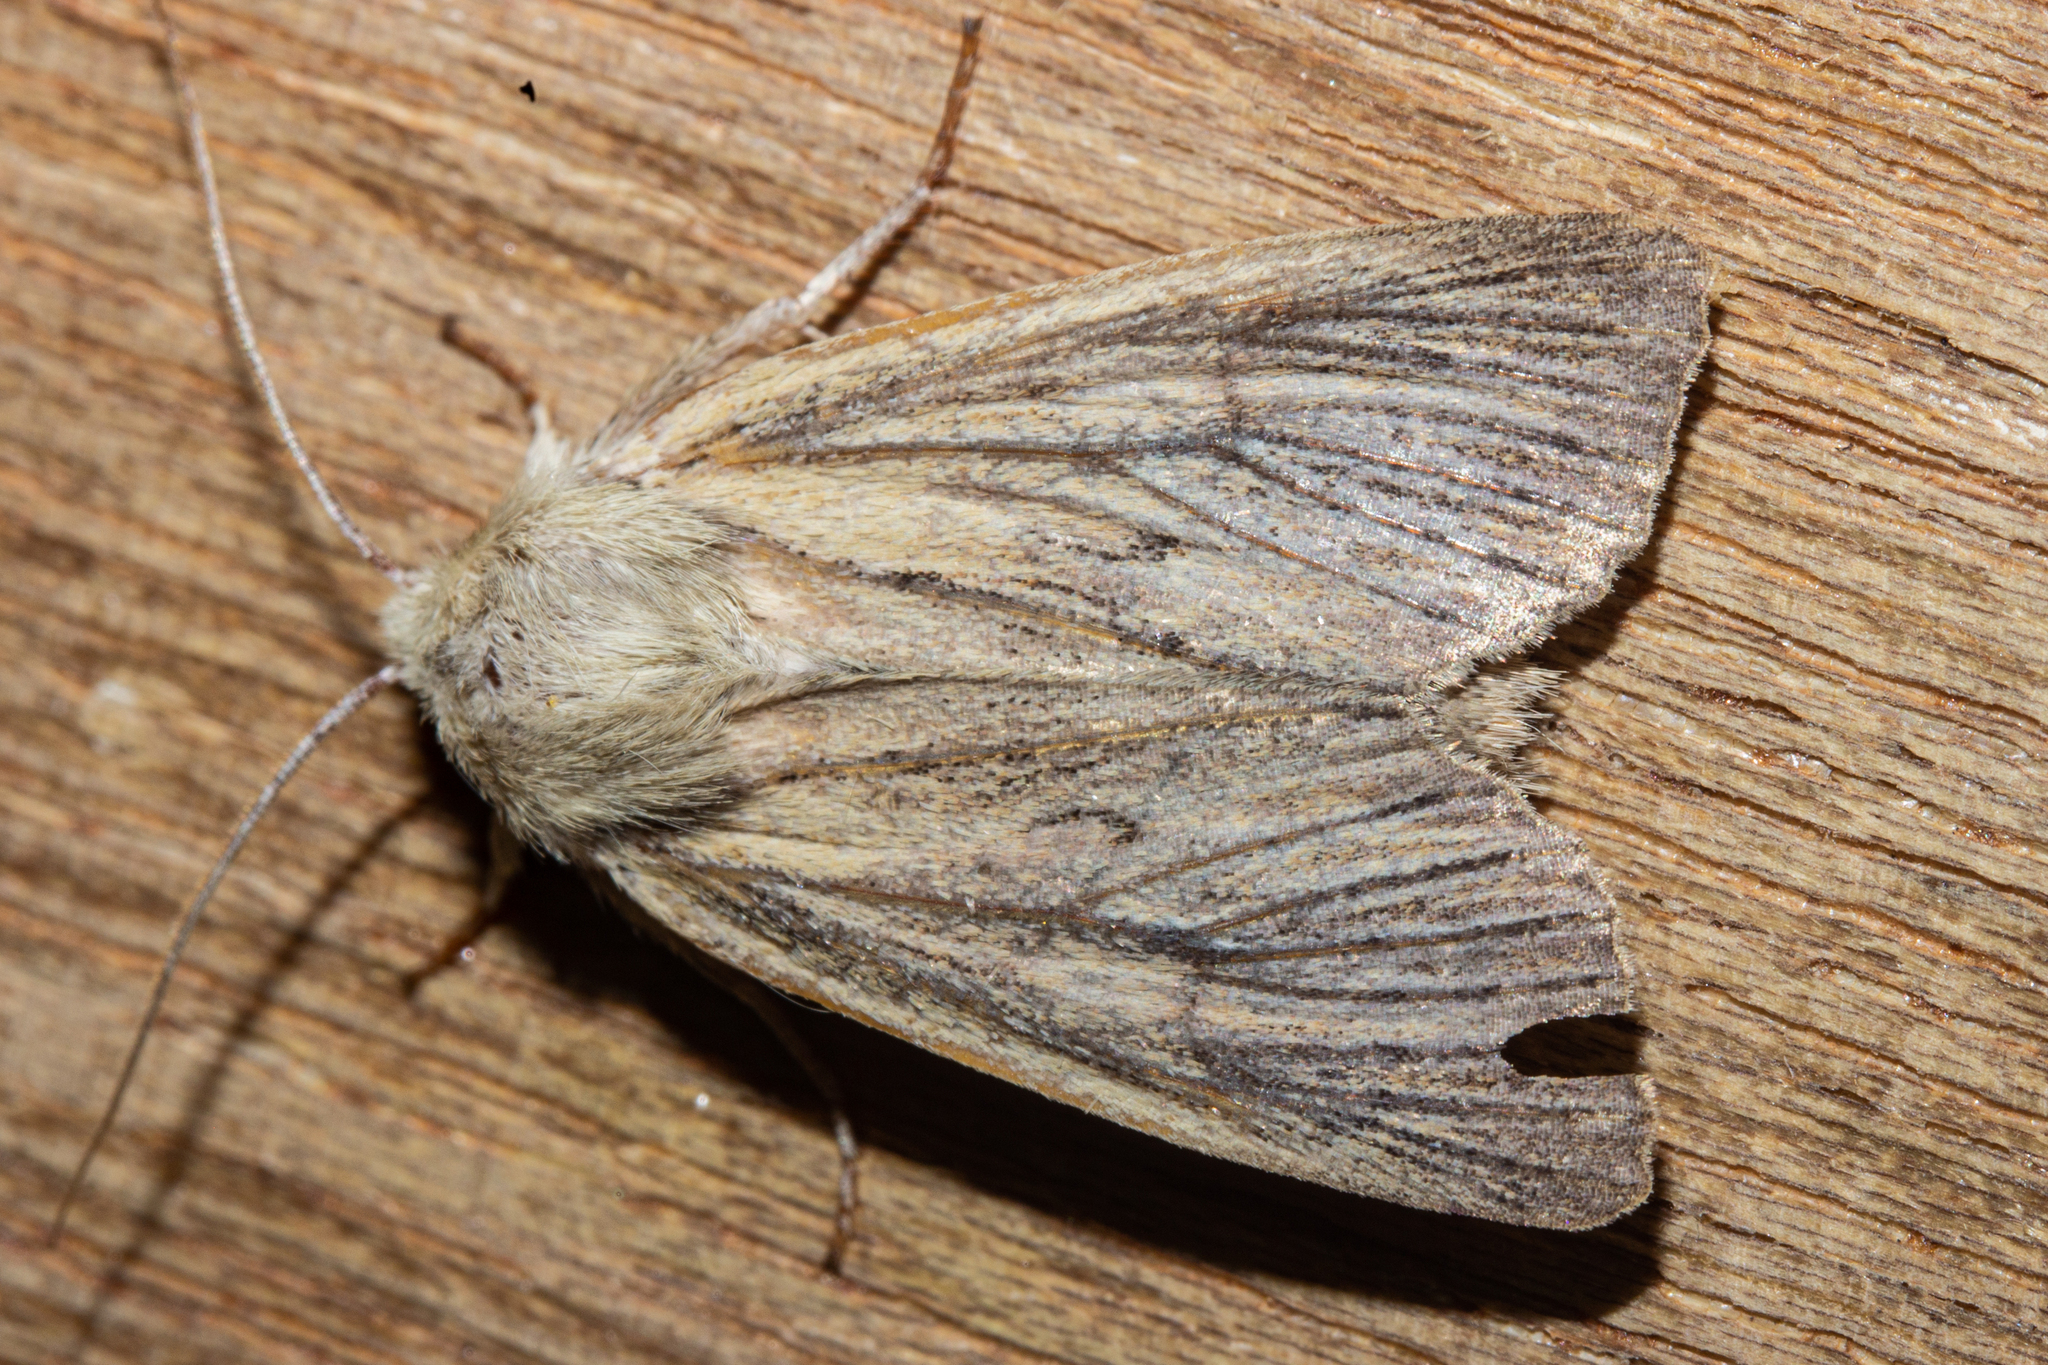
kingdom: Animalia
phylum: Arthropoda
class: Insecta
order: Lepidoptera
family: Noctuidae
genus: Ichneutica
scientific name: Ichneutica arotis
